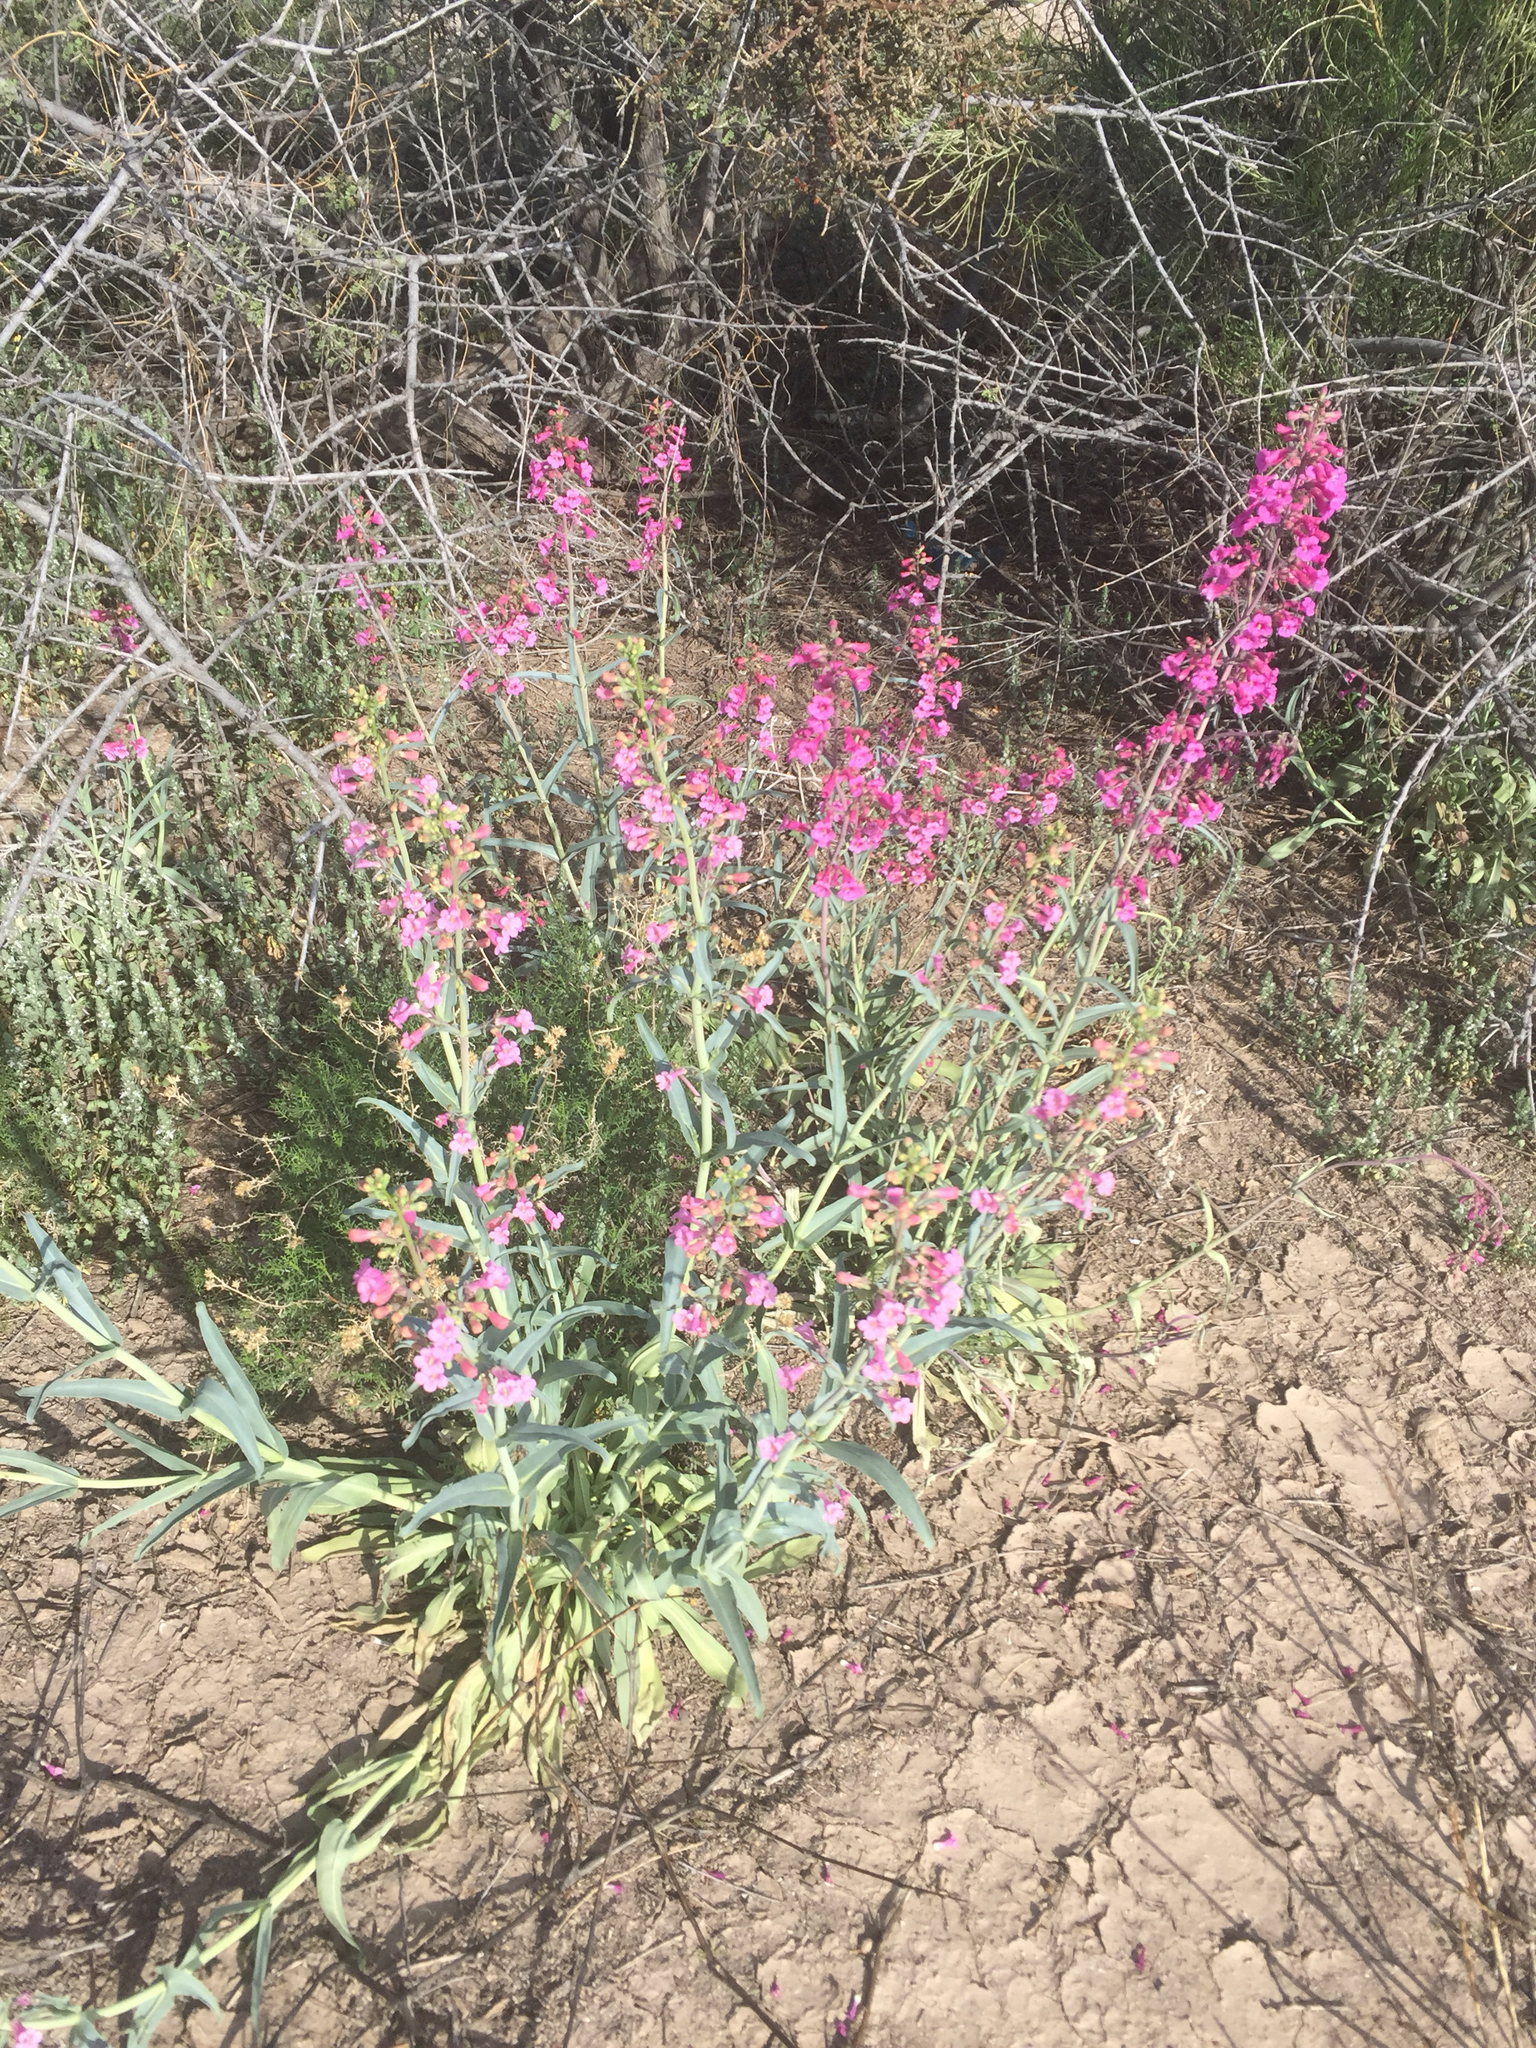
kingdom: Plantae
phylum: Tracheophyta
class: Magnoliopsida
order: Lamiales
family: Plantaginaceae
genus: Penstemon
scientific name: Penstemon parryi
